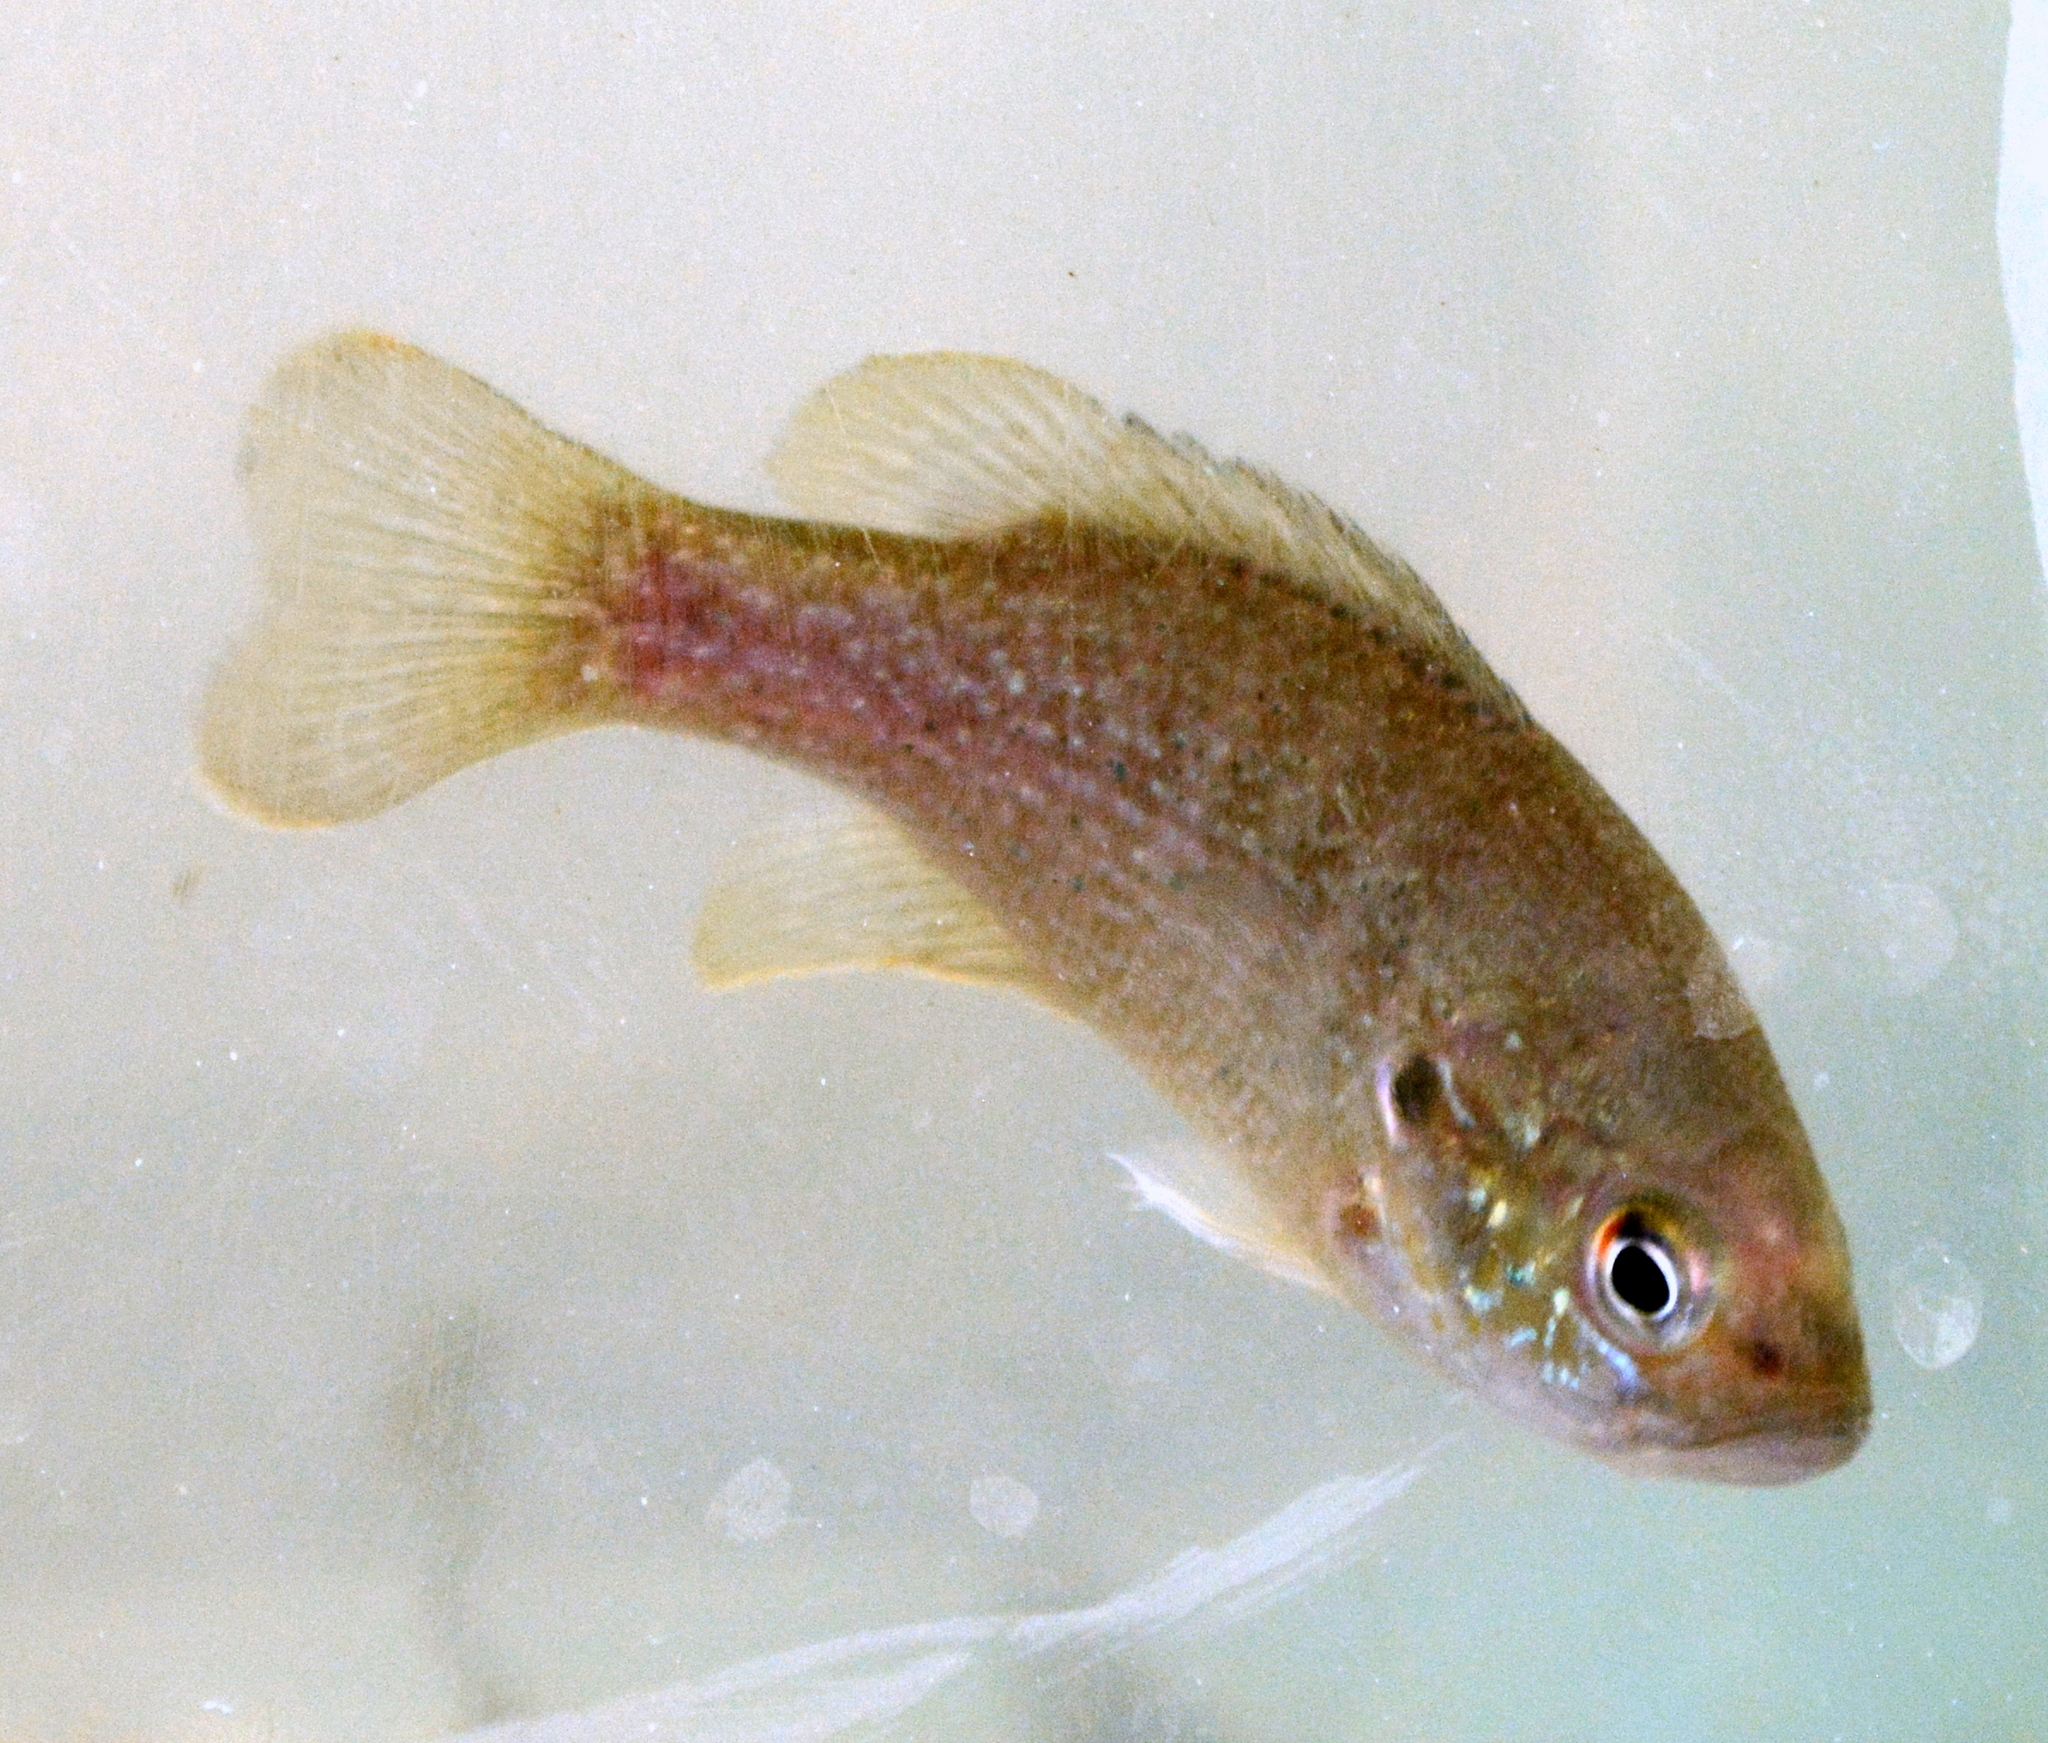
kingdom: Animalia
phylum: Chordata
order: Perciformes
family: Centrarchidae
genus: Lepomis
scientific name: Lepomis cyanellus
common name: Green sunfish
